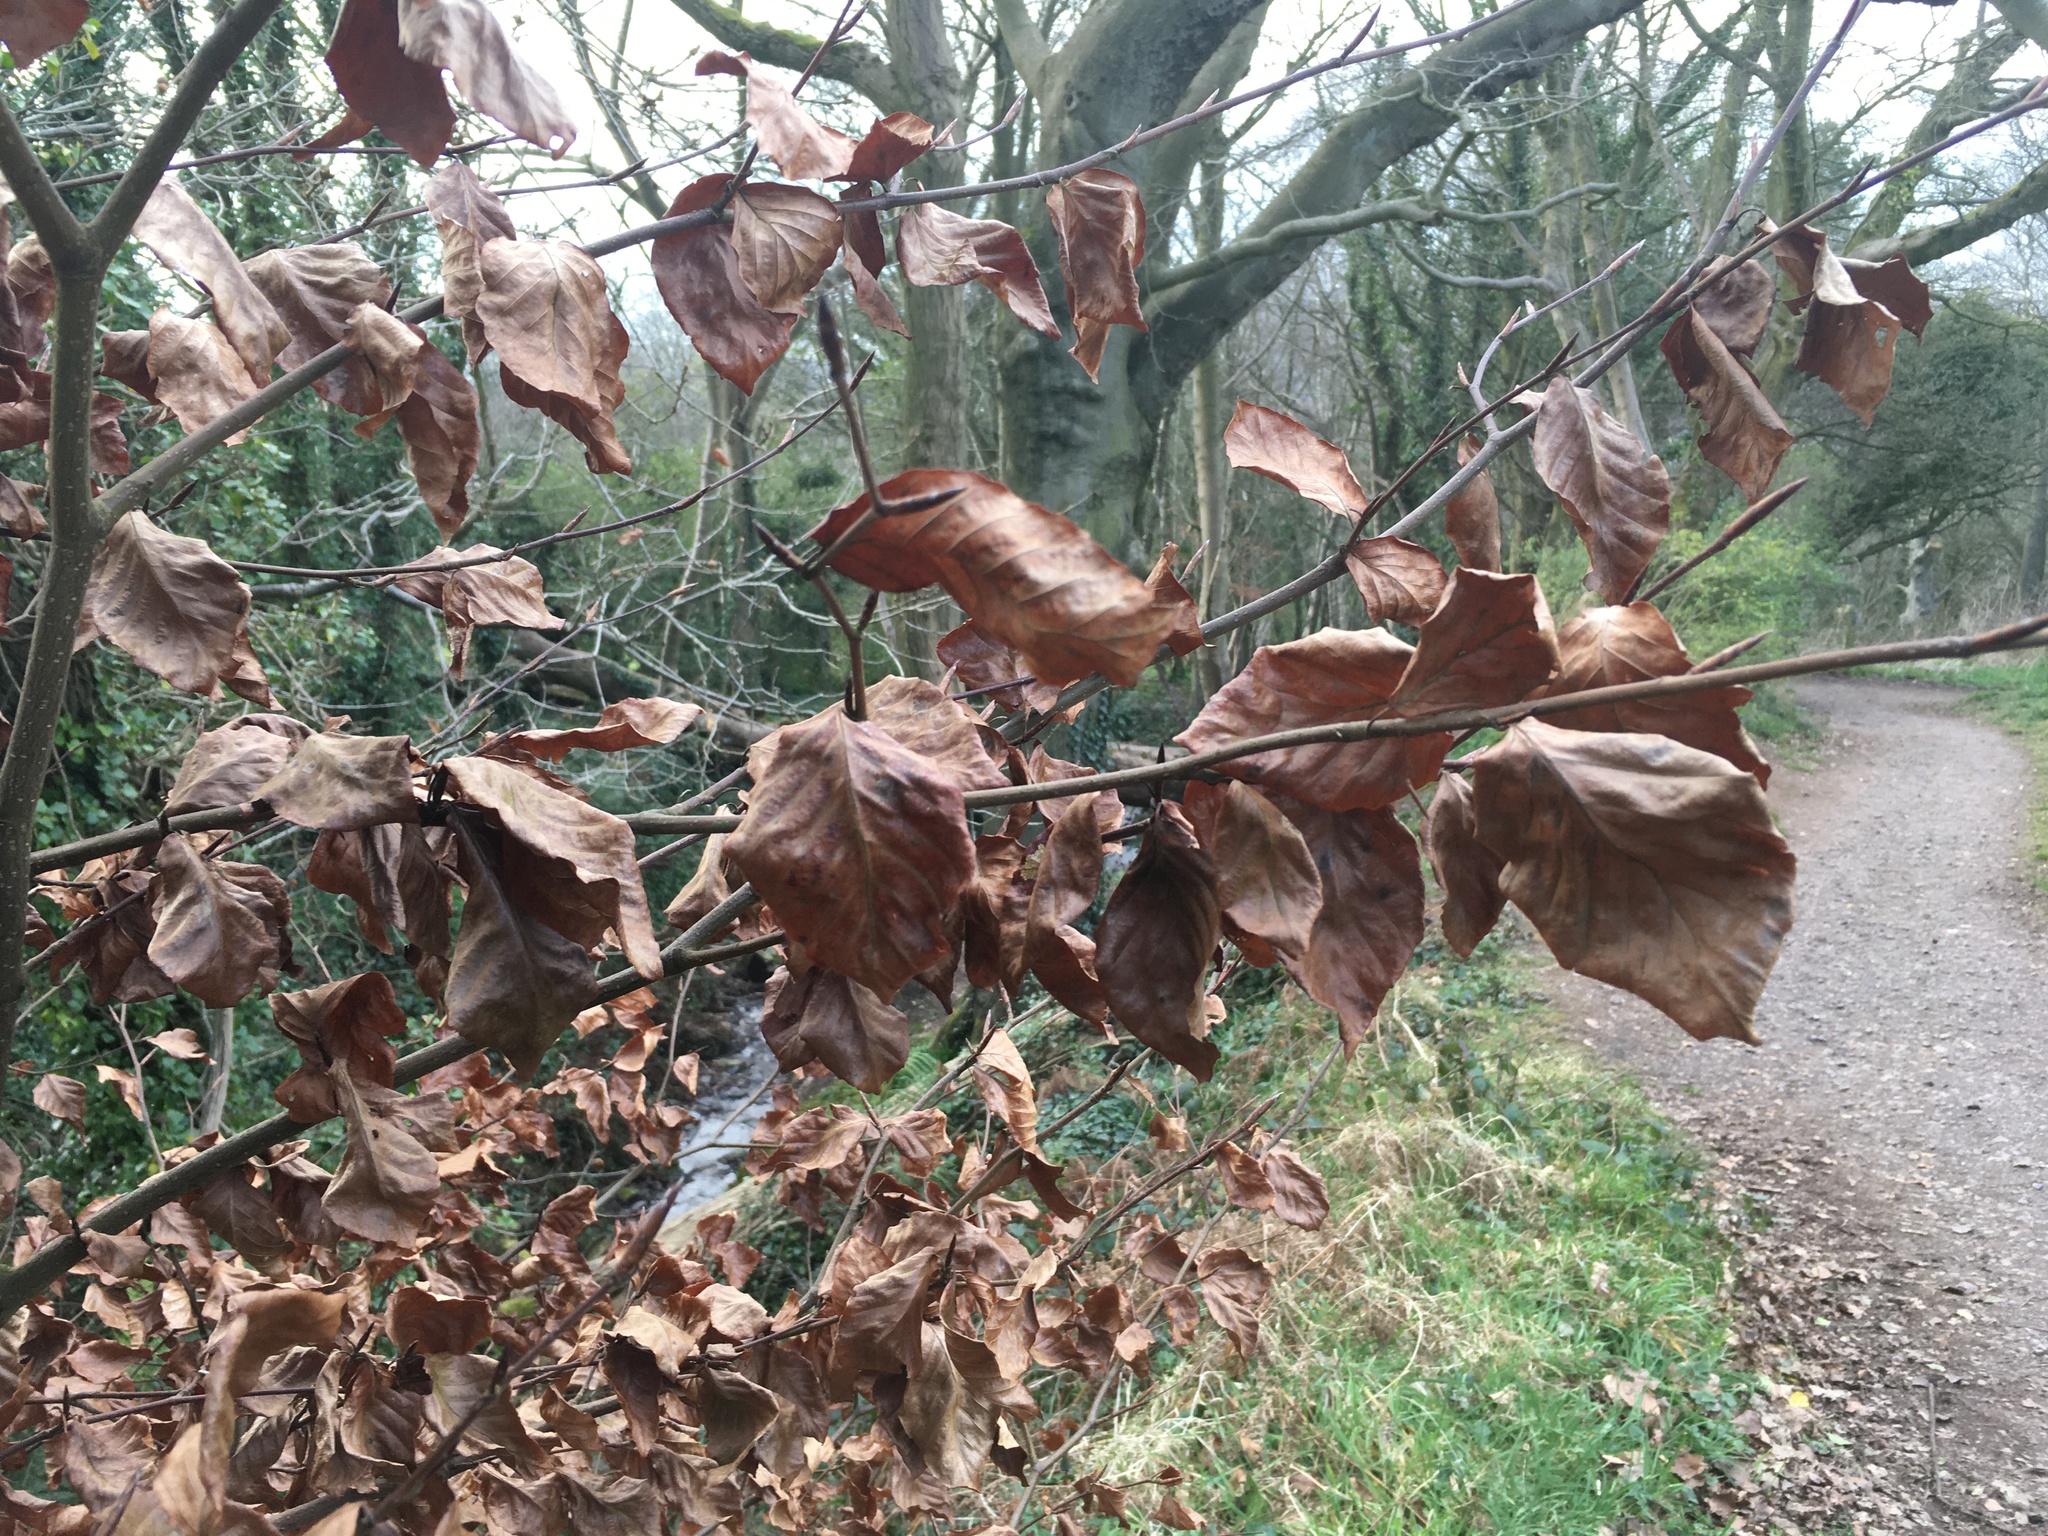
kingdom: Plantae
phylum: Tracheophyta
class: Magnoliopsida
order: Fagales
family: Fagaceae
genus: Fagus
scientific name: Fagus sylvatica
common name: Beech
